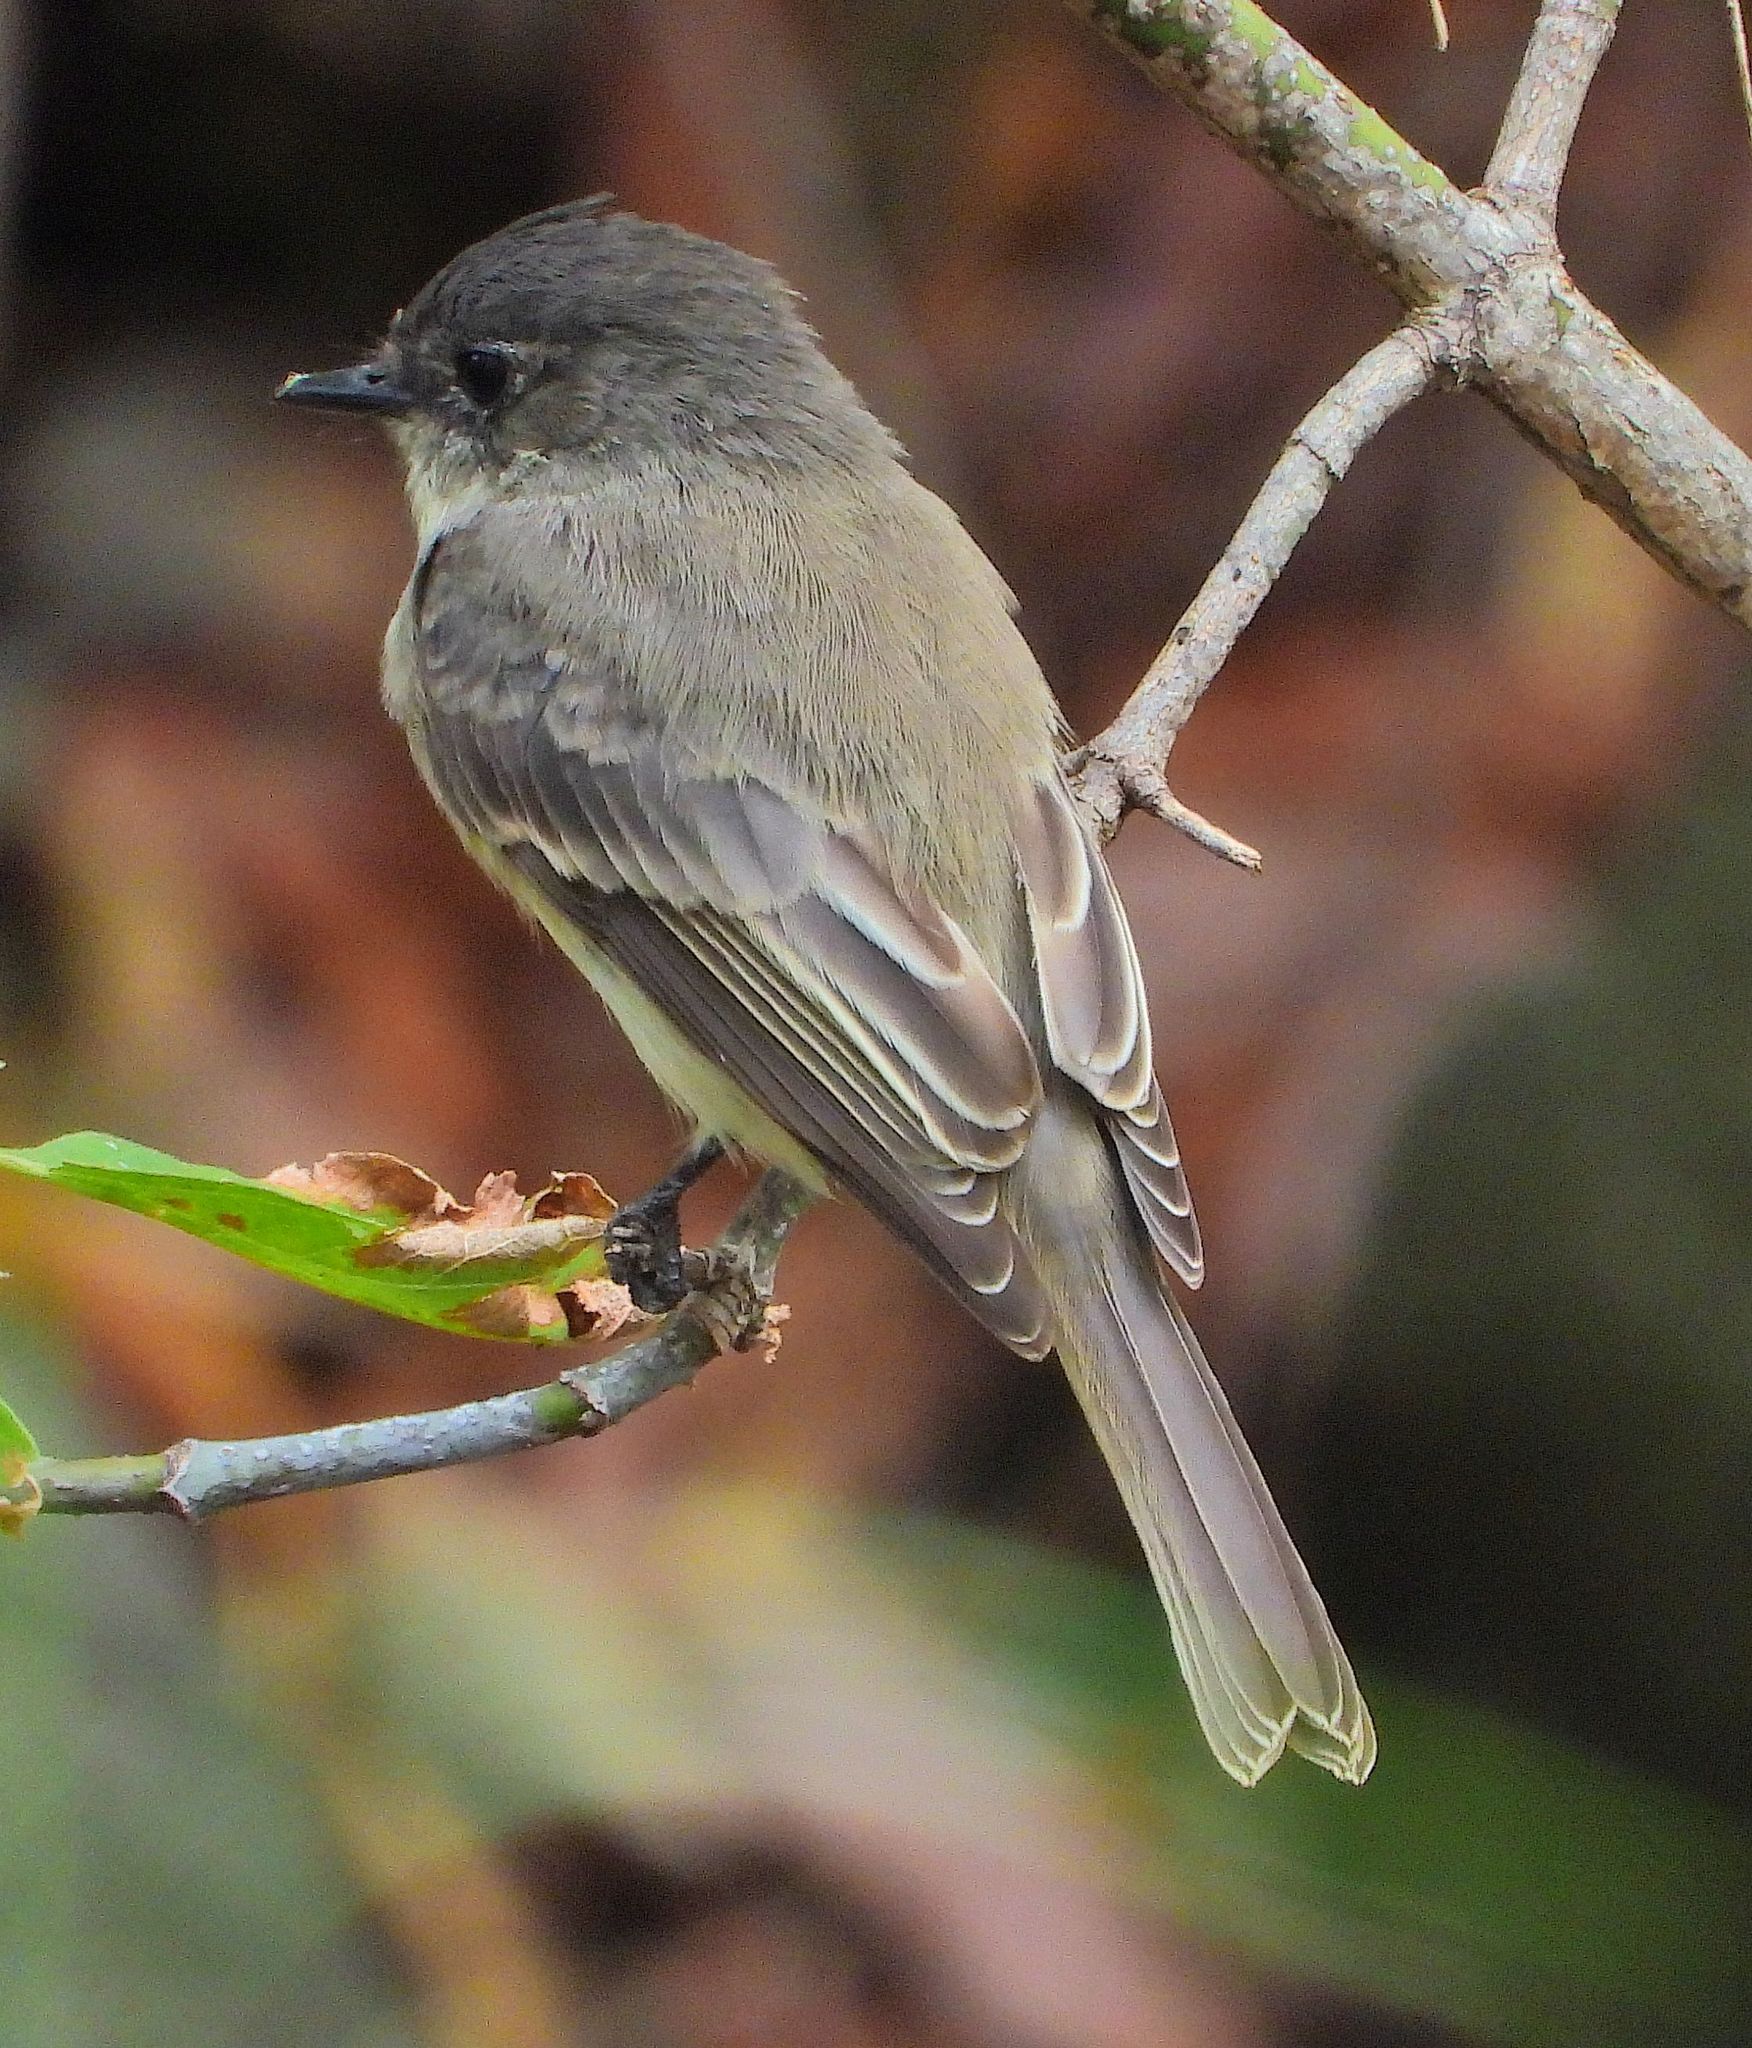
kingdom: Animalia
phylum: Chordata
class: Aves
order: Passeriformes
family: Tyrannidae
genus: Sayornis
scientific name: Sayornis phoebe
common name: Eastern phoebe
